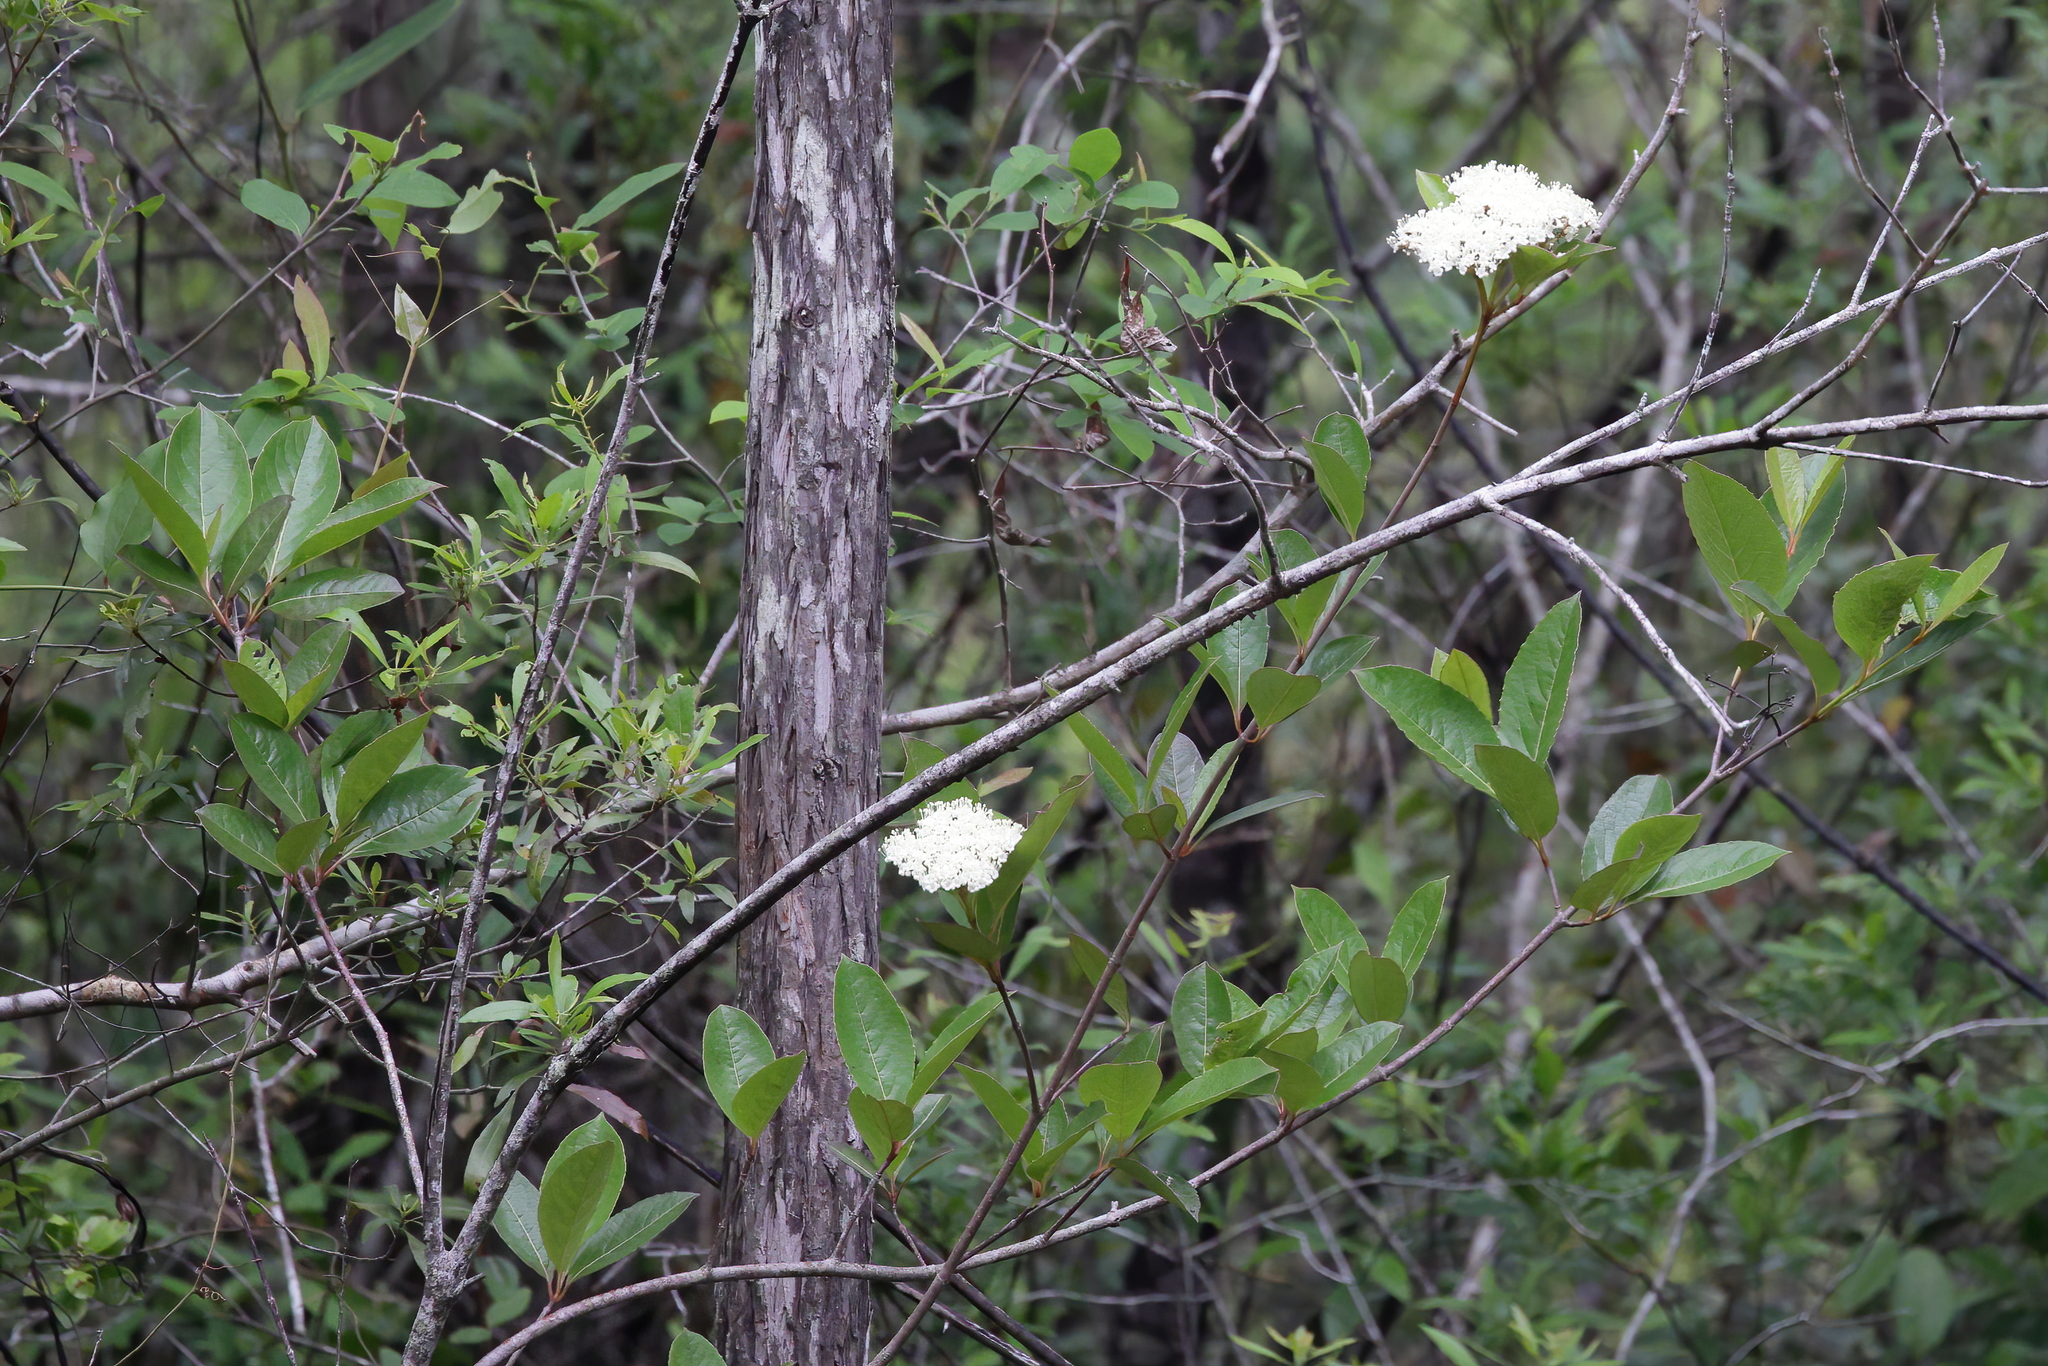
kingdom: Plantae
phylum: Tracheophyta
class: Magnoliopsida
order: Dipsacales
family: Viburnaceae
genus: Viburnum
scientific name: Viburnum nudum
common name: Possum haw
